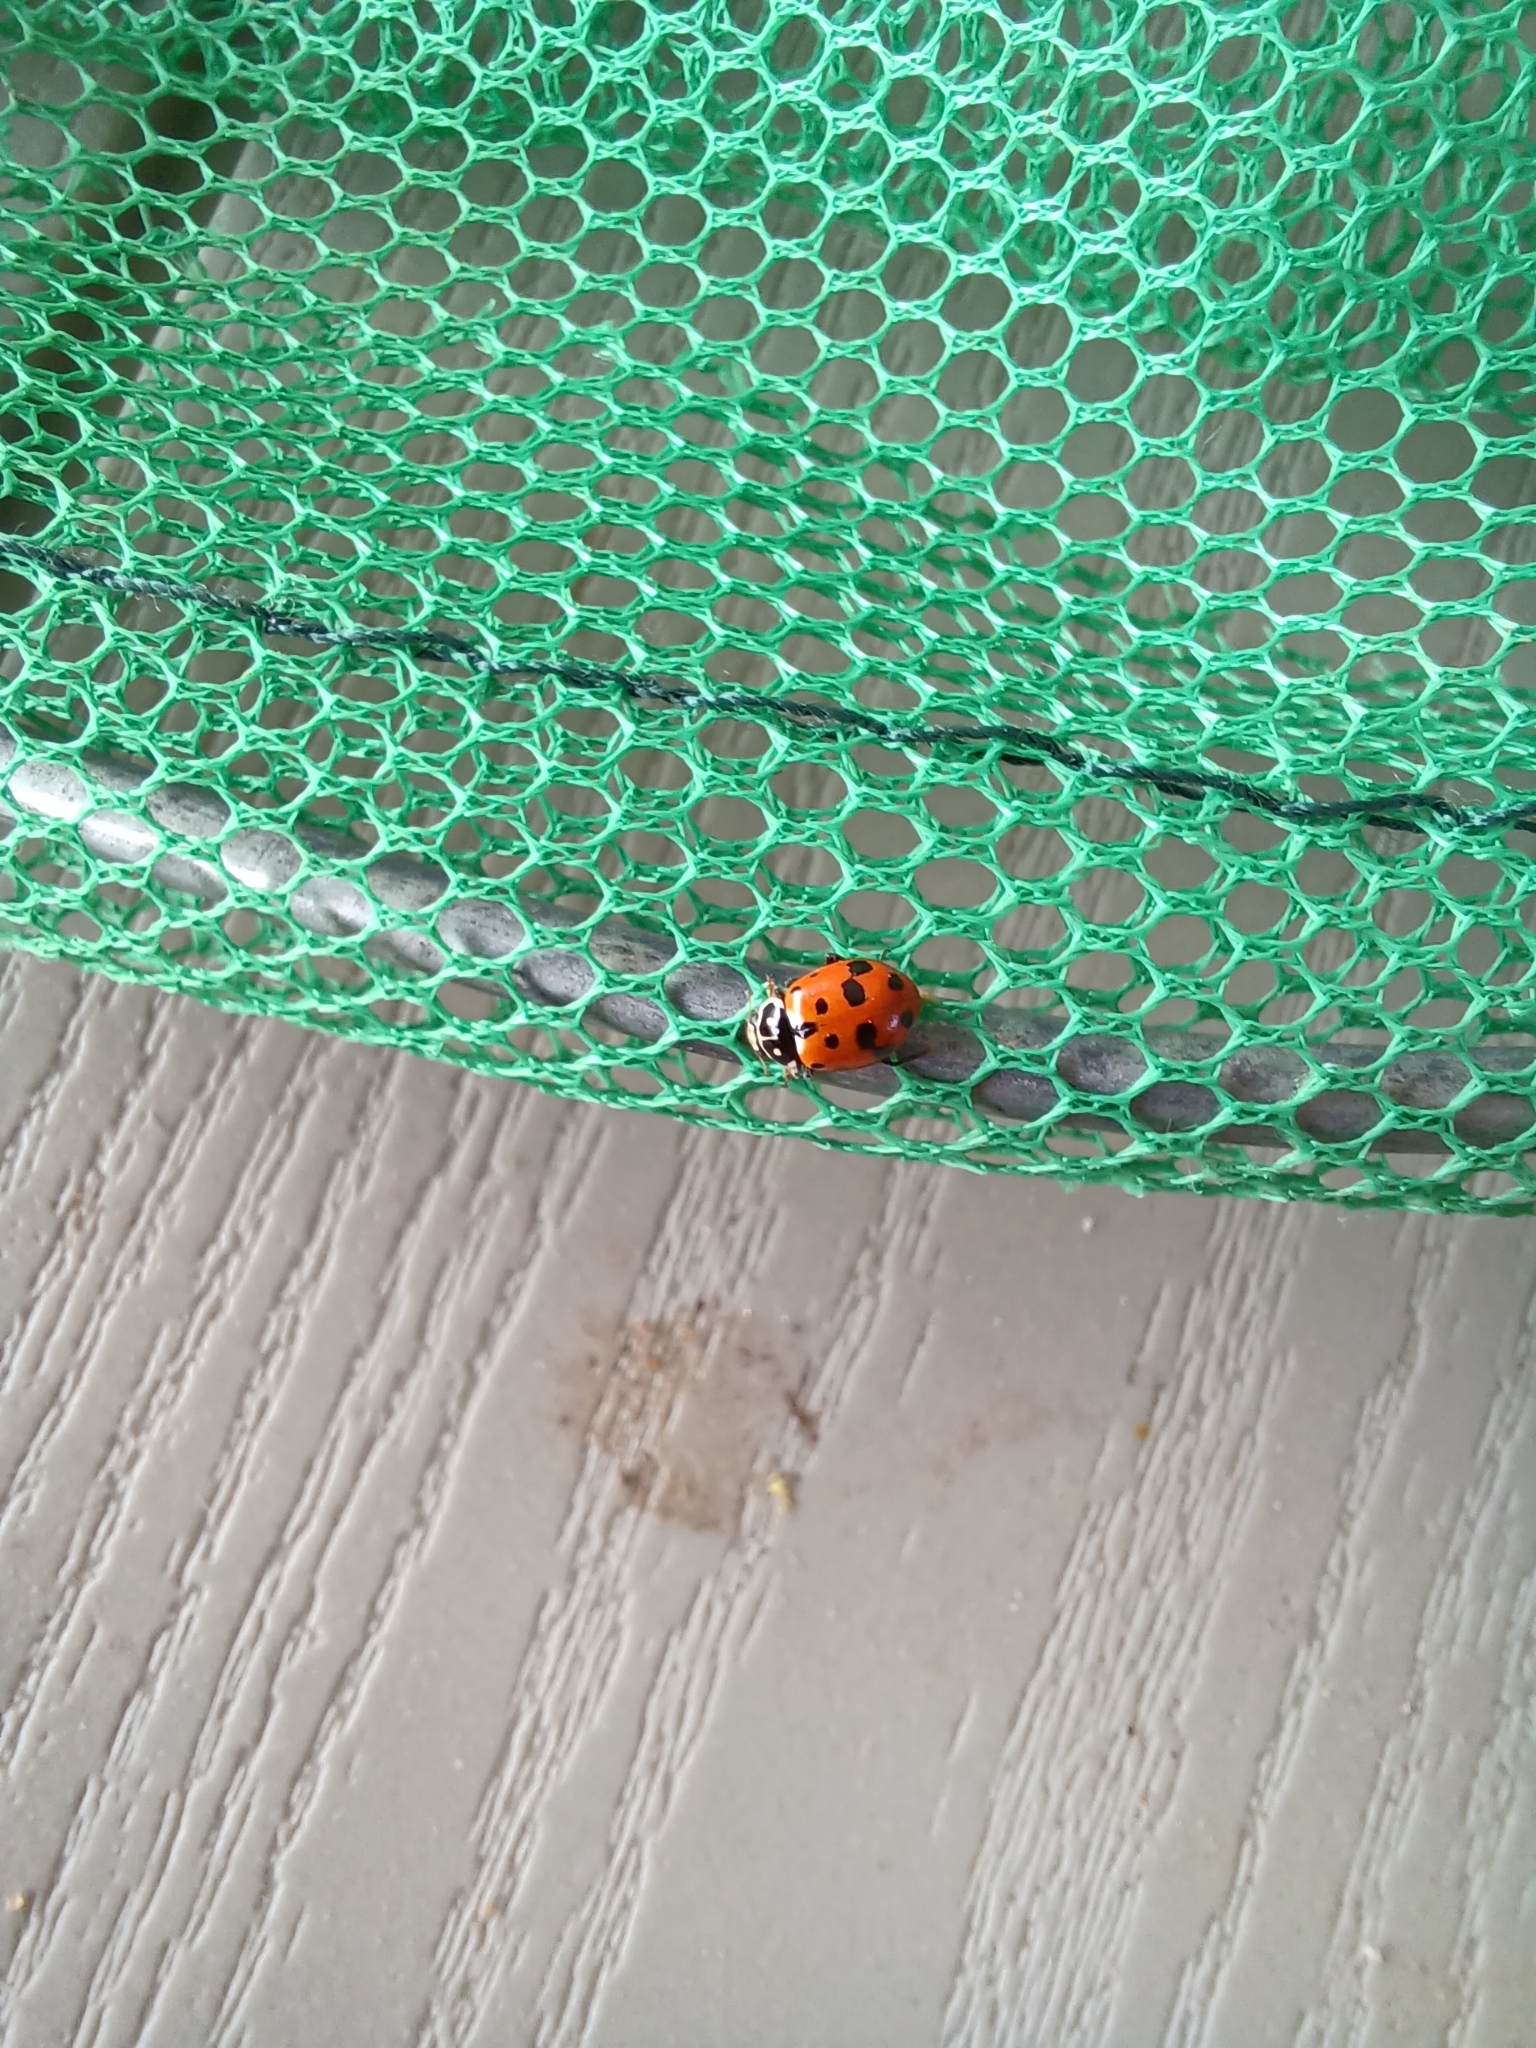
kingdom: Animalia
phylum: Arthropoda
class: Insecta
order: Coleoptera
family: Coccinellidae
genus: Hippodamia
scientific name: Hippodamia variegata
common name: Ladybird beetle
